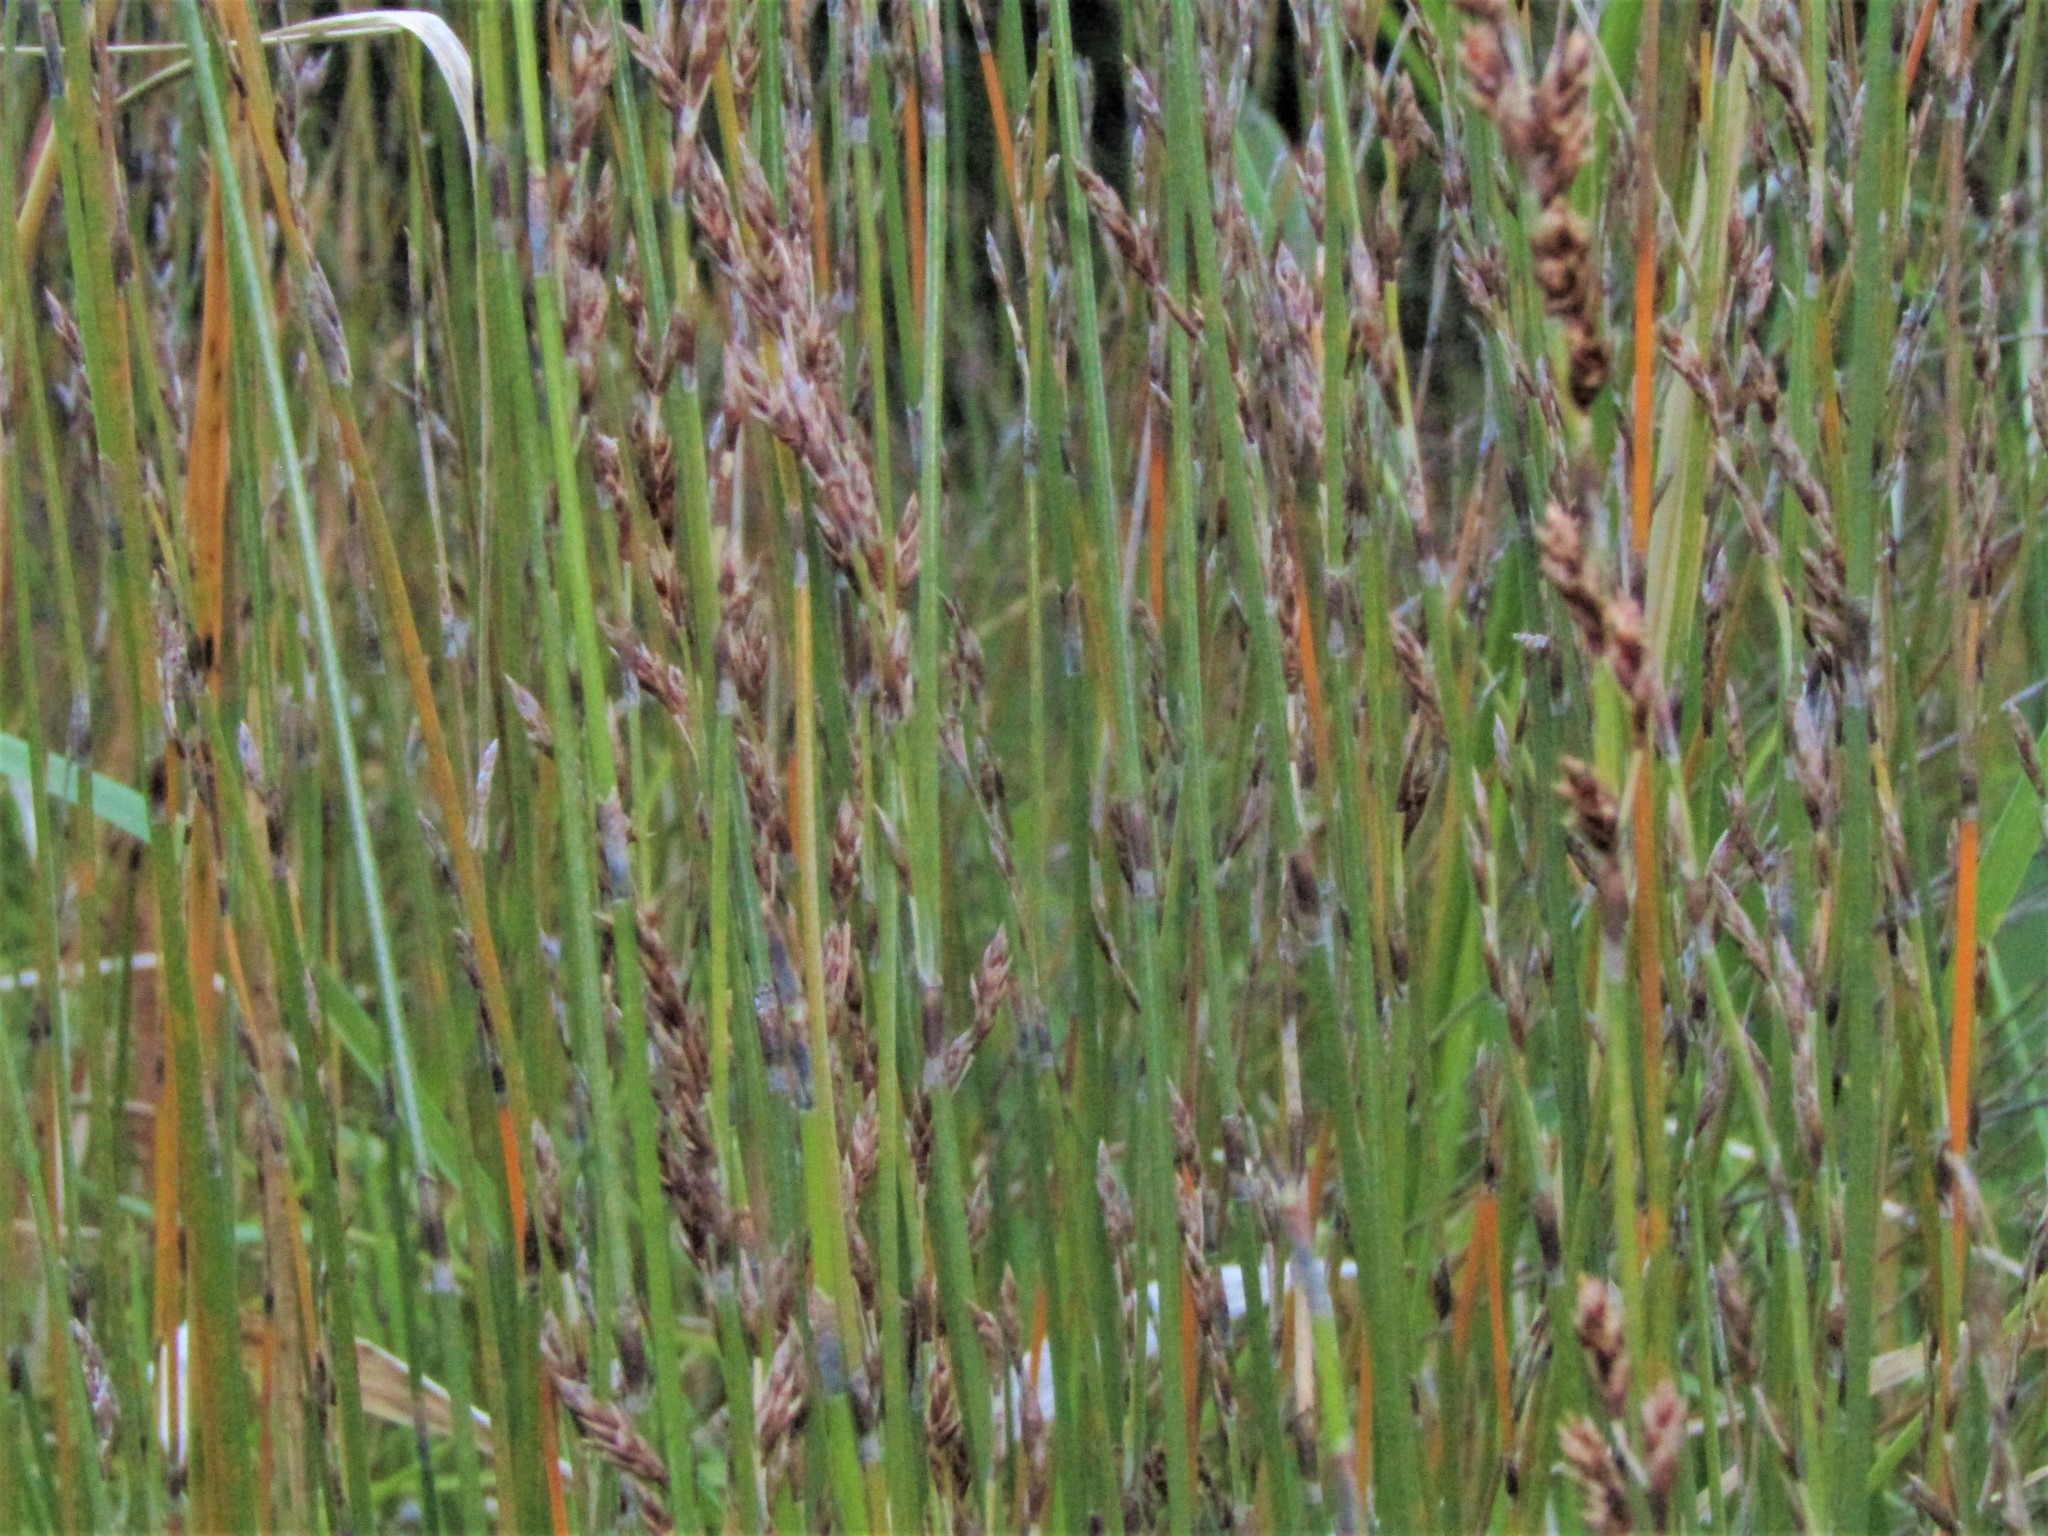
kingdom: Plantae
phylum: Tracheophyta
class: Liliopsida
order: Poales
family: Restionaceae
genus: Apodasmia
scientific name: Apodasmia similis
